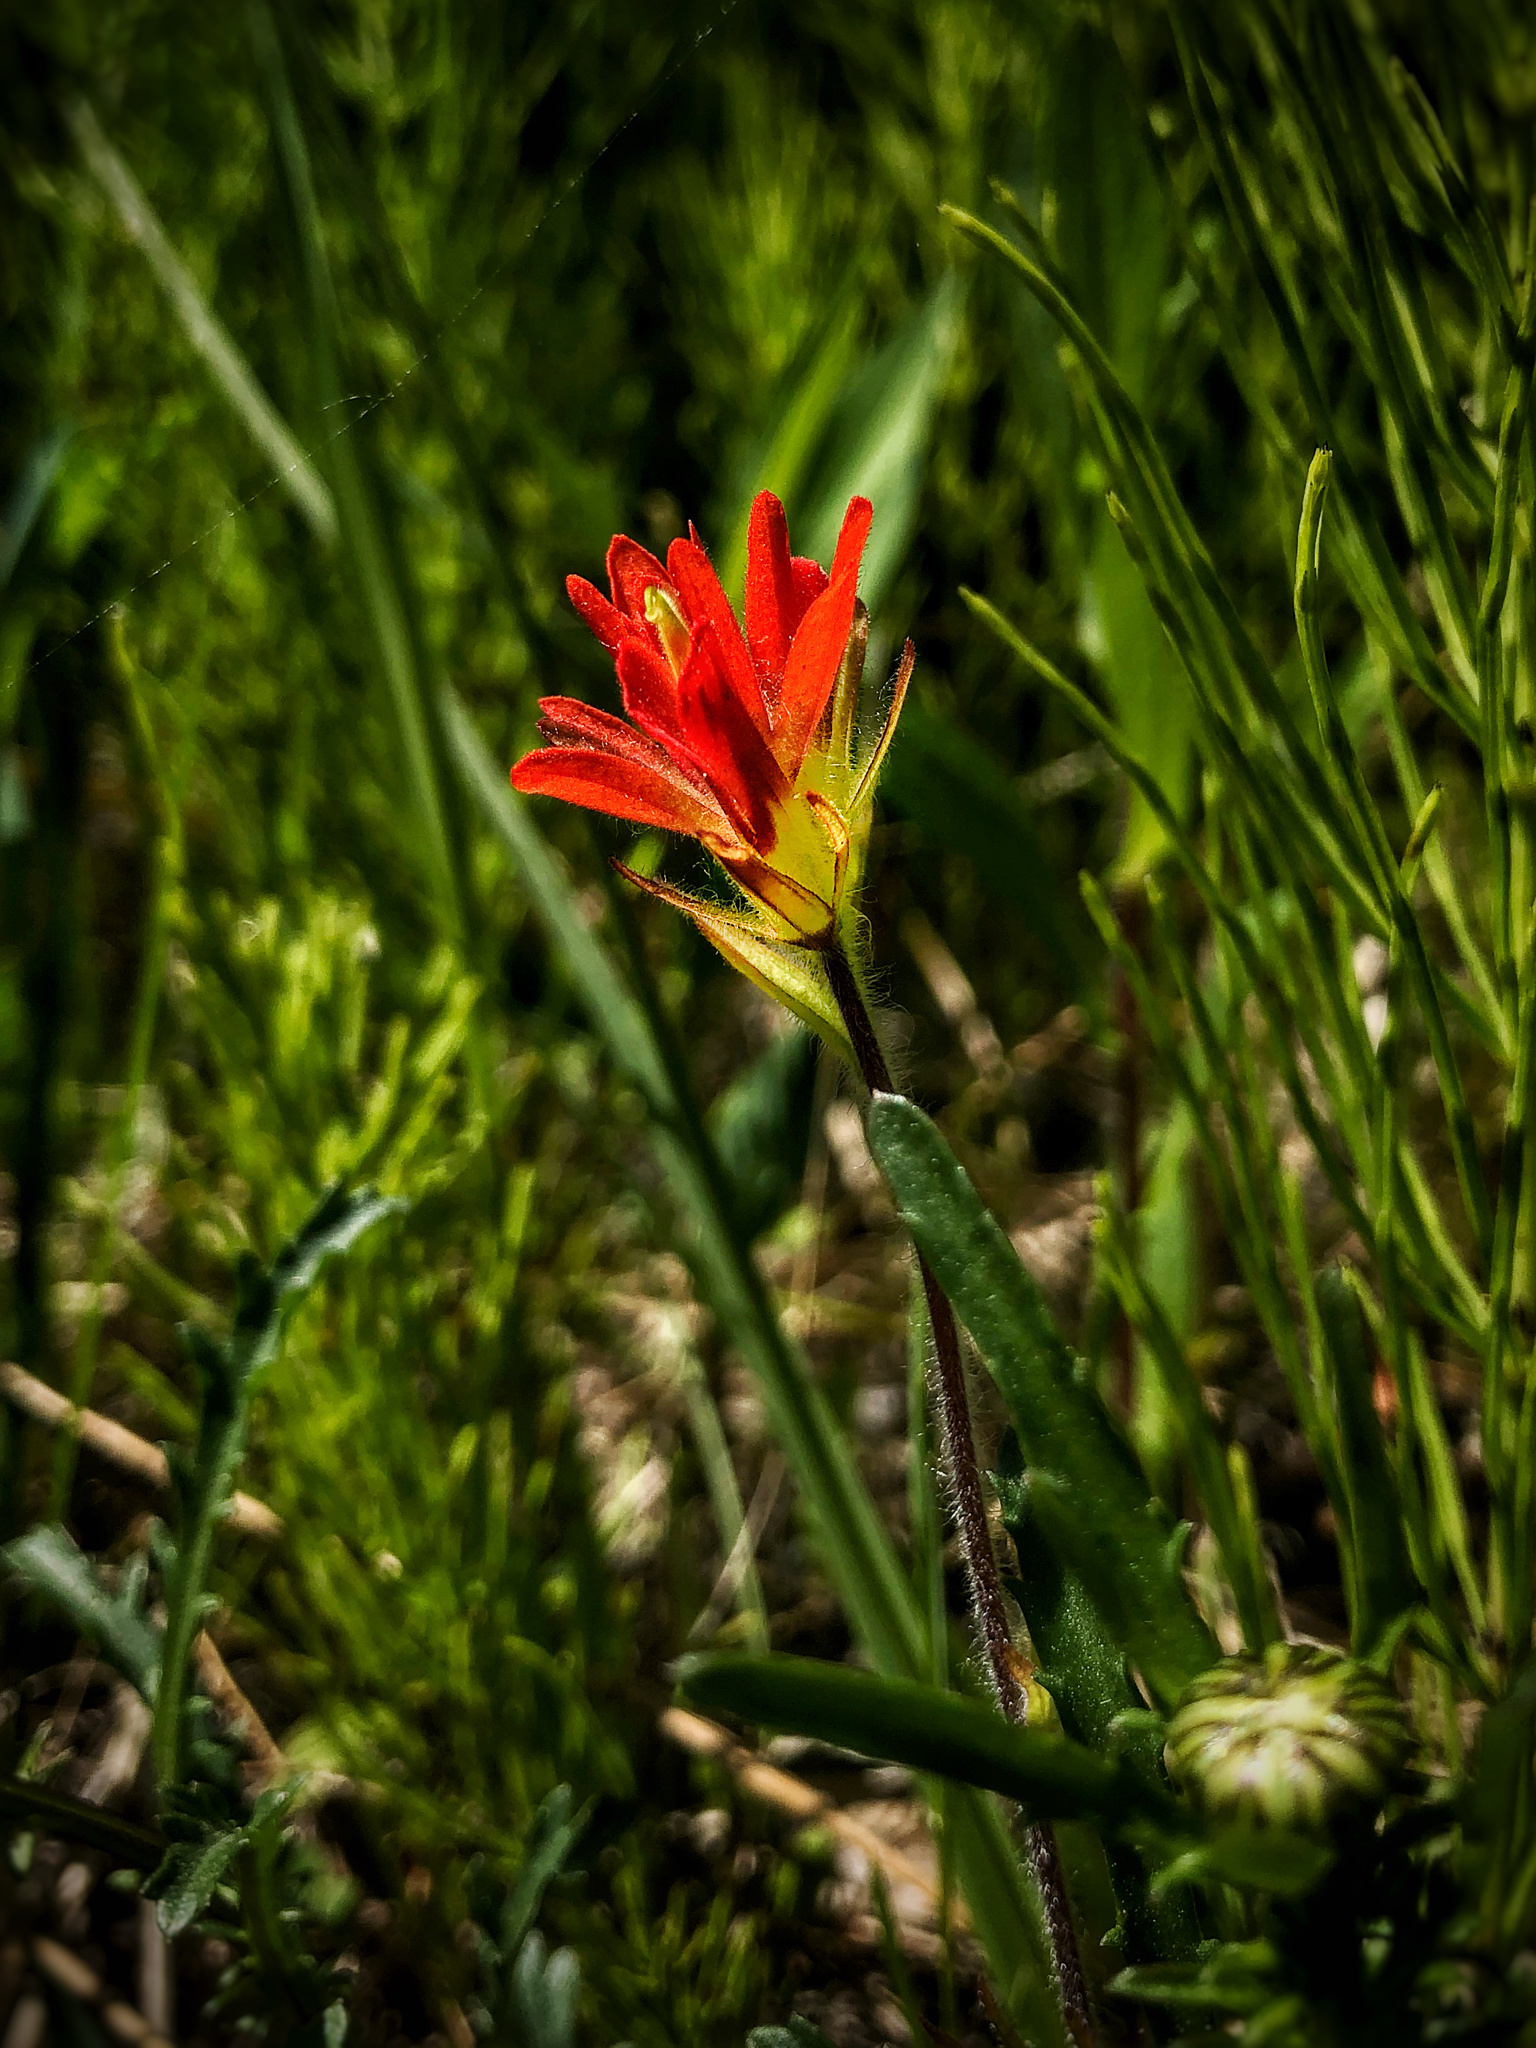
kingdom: Plantae
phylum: Tracheophyta
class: Magnoliopsida
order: Lamiales
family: Orobanchaceae
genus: Castilleja
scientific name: Castilleja coccinea
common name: Scarlet paintbrush
